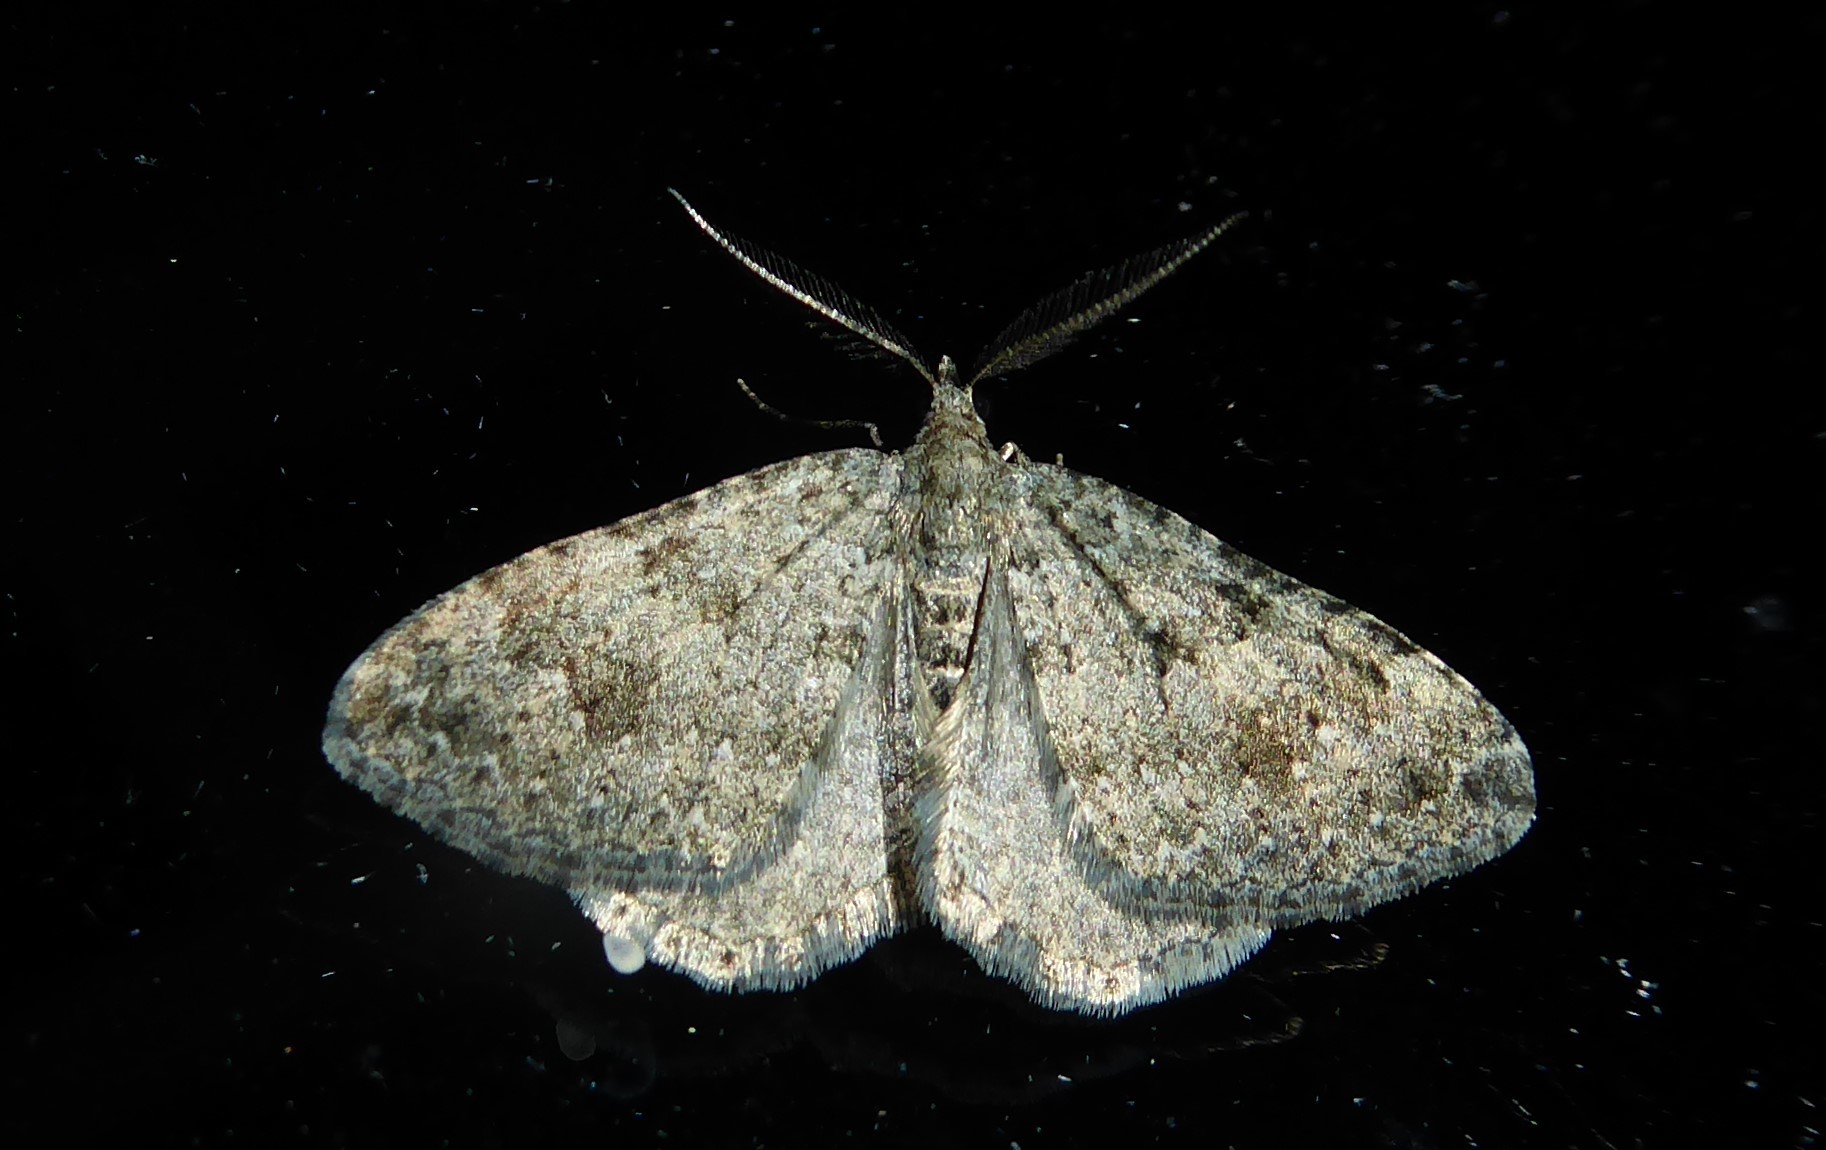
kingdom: Animalia
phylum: Arthropoda
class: Insecta
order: Lepidoptera
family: Geometridae
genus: Helastia
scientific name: Helastia corcularia
